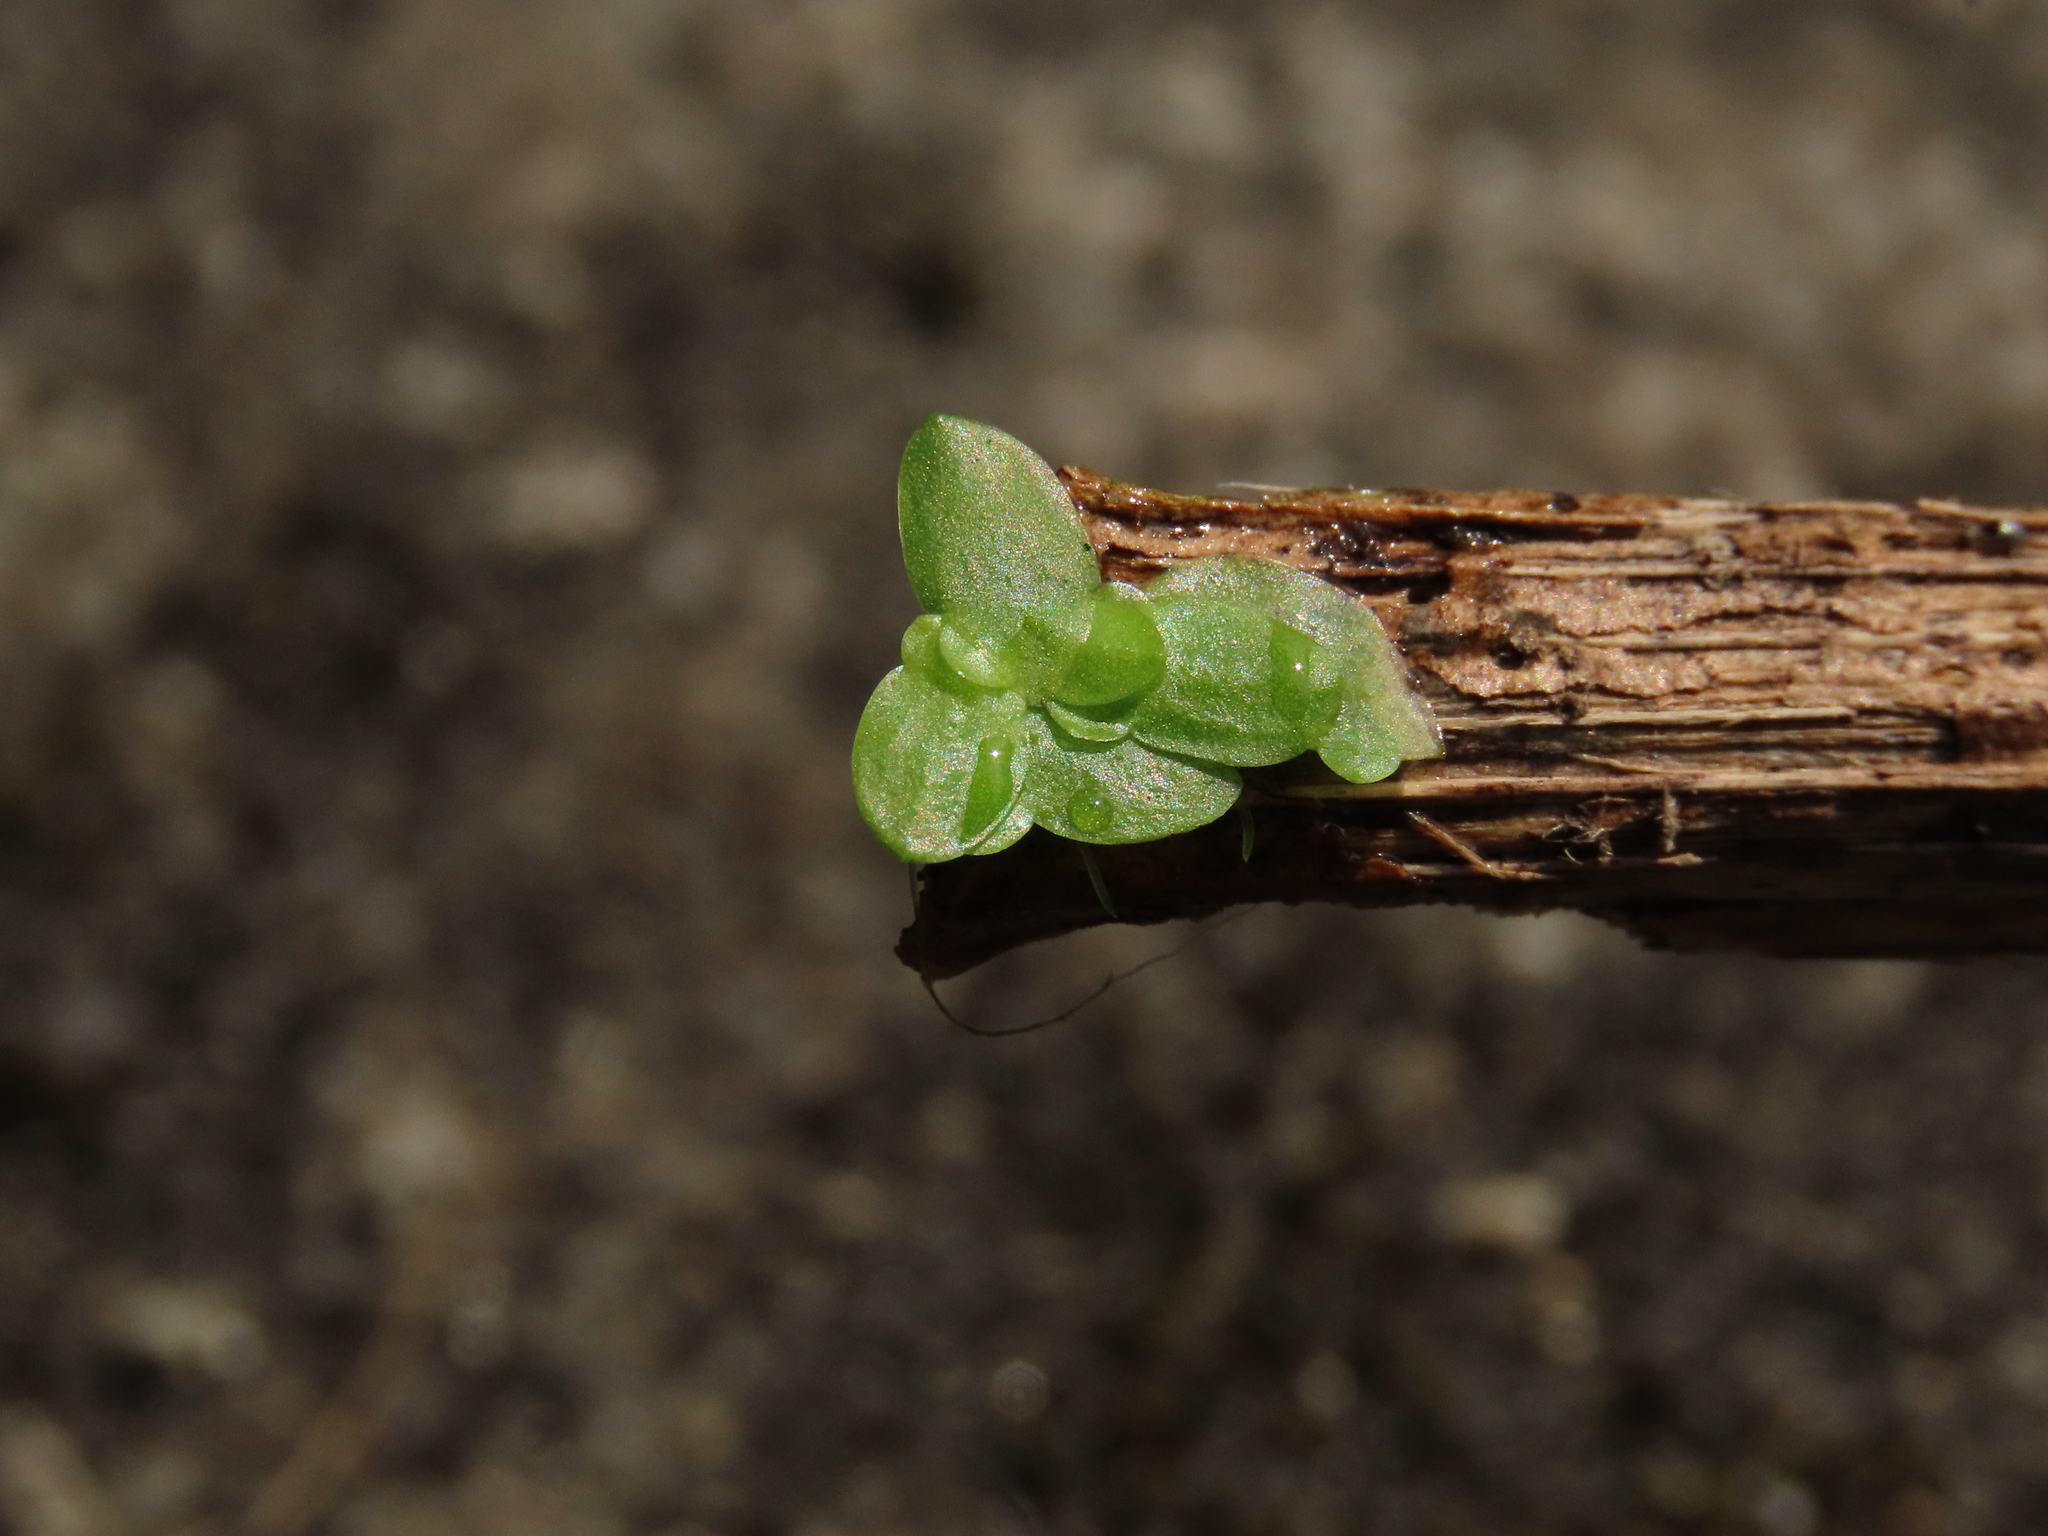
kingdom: Plantae
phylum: Tracheophyta
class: Liliopsida
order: Alismatales
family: Araceae
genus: Lemna
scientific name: Lemna aequinoctialis
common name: Duckweed
